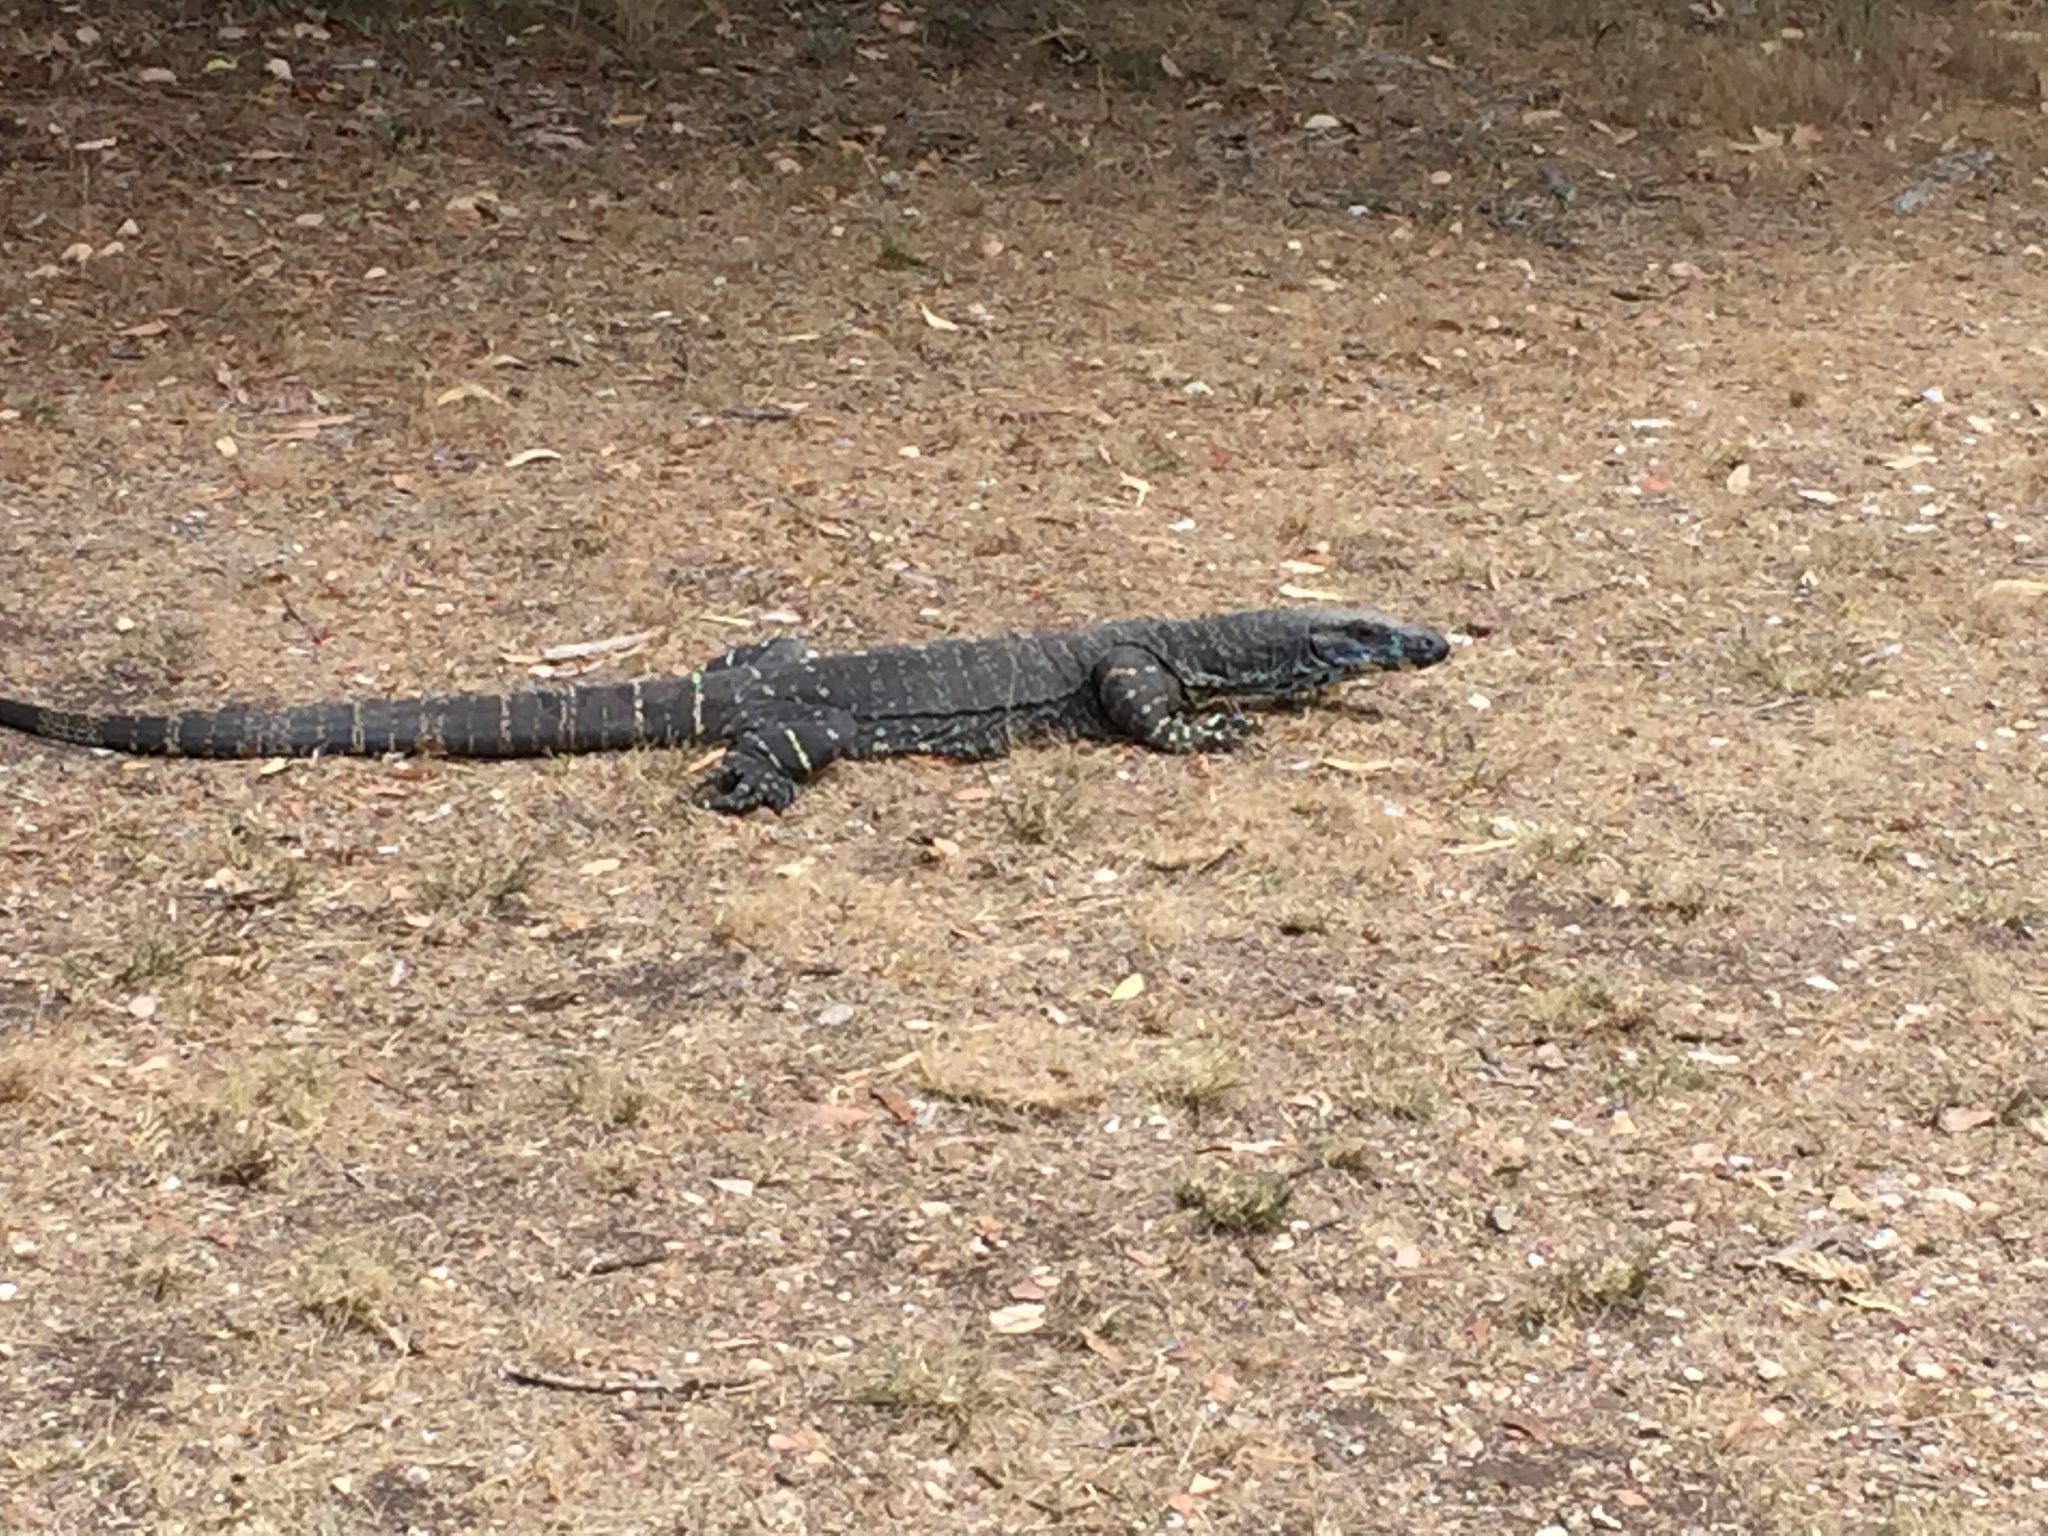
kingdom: Animalia
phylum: Chordata
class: Squamata
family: Varanidae
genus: Varanus
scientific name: Varanus varius
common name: Lace monitor
